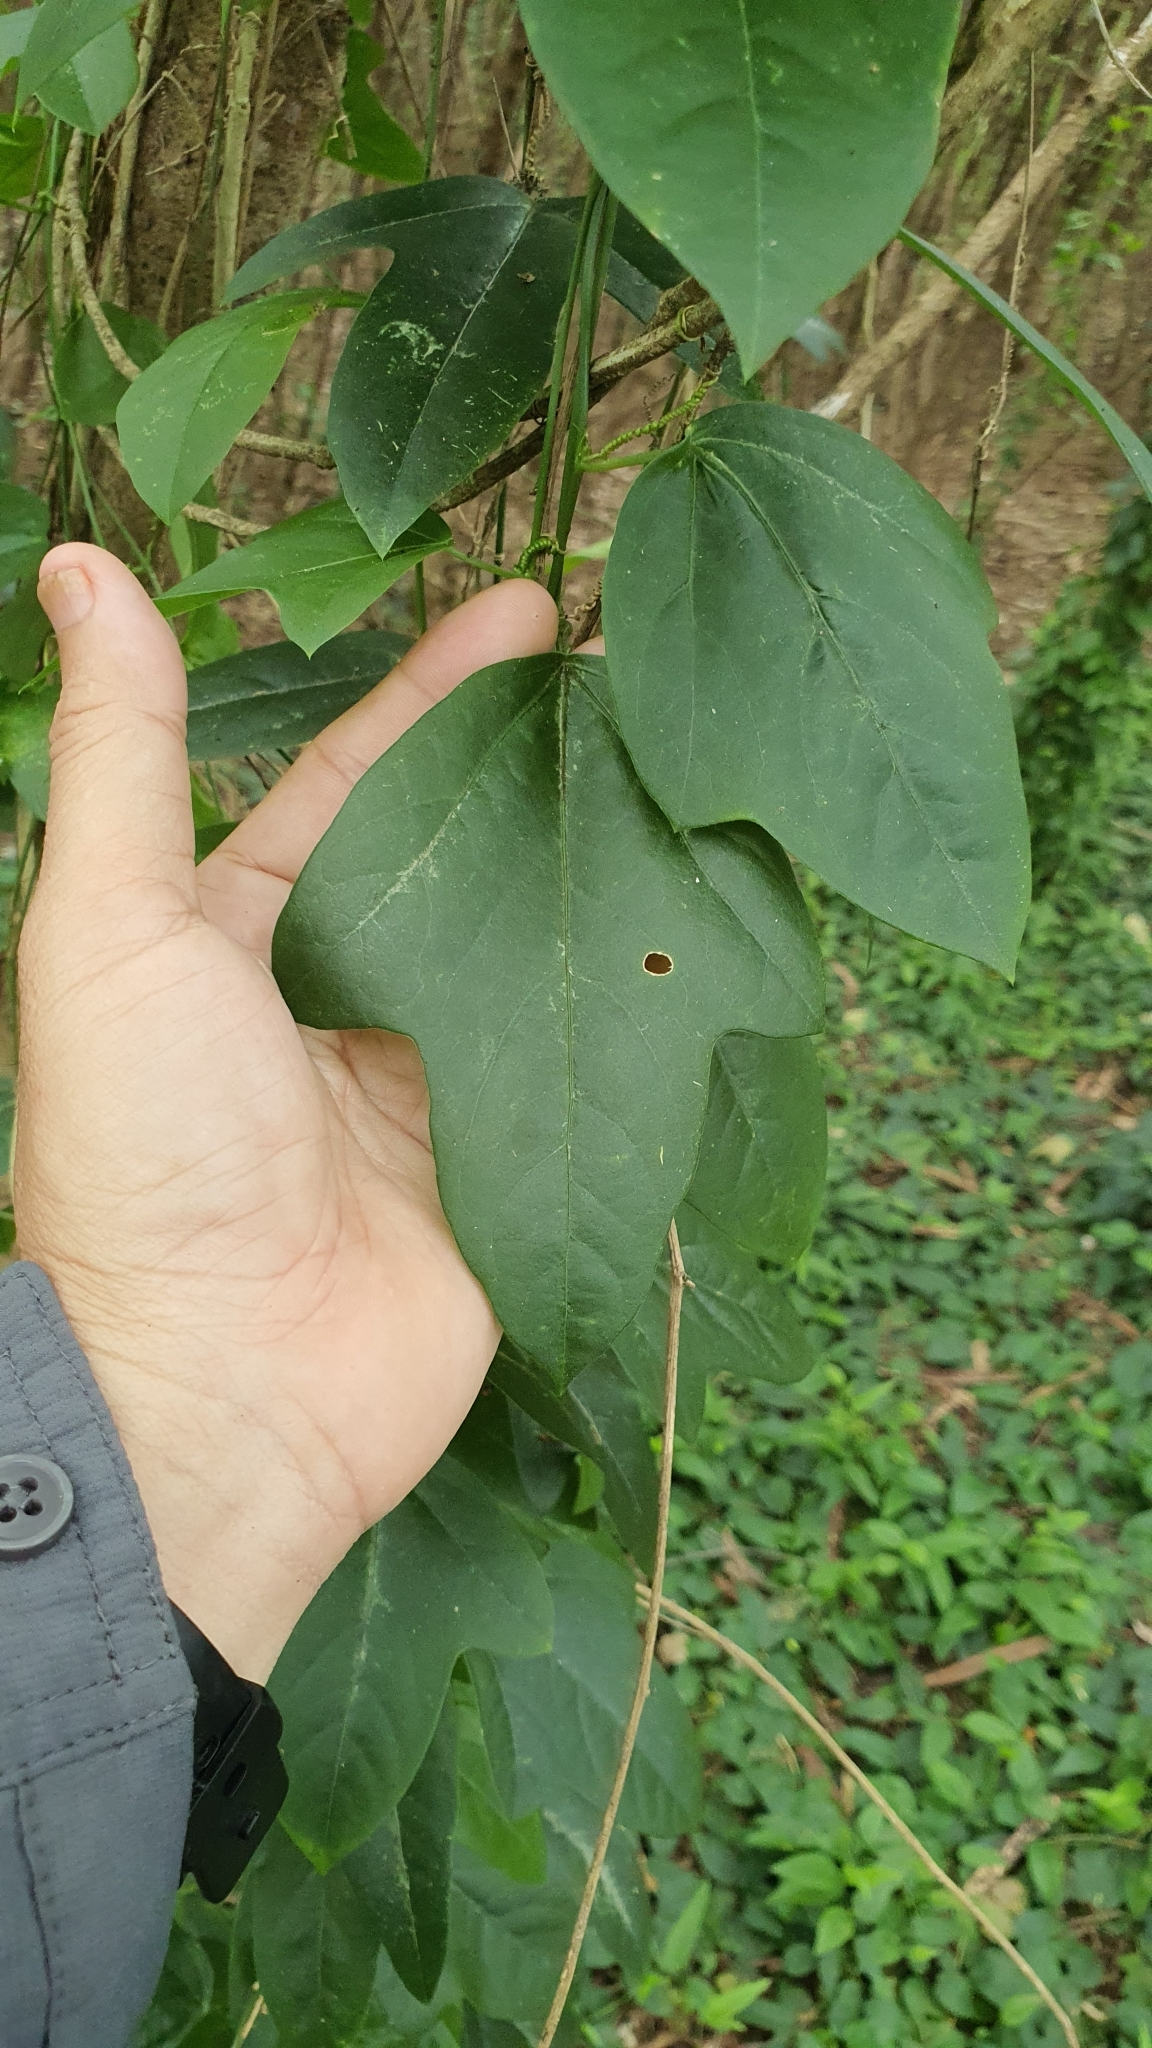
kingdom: Plantae
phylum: Tracheophyta
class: Magnoliopsida
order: Malpighiales
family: Passifloraceae
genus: Passiflora
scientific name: Passiflora suberosa
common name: Wild passionfruit
